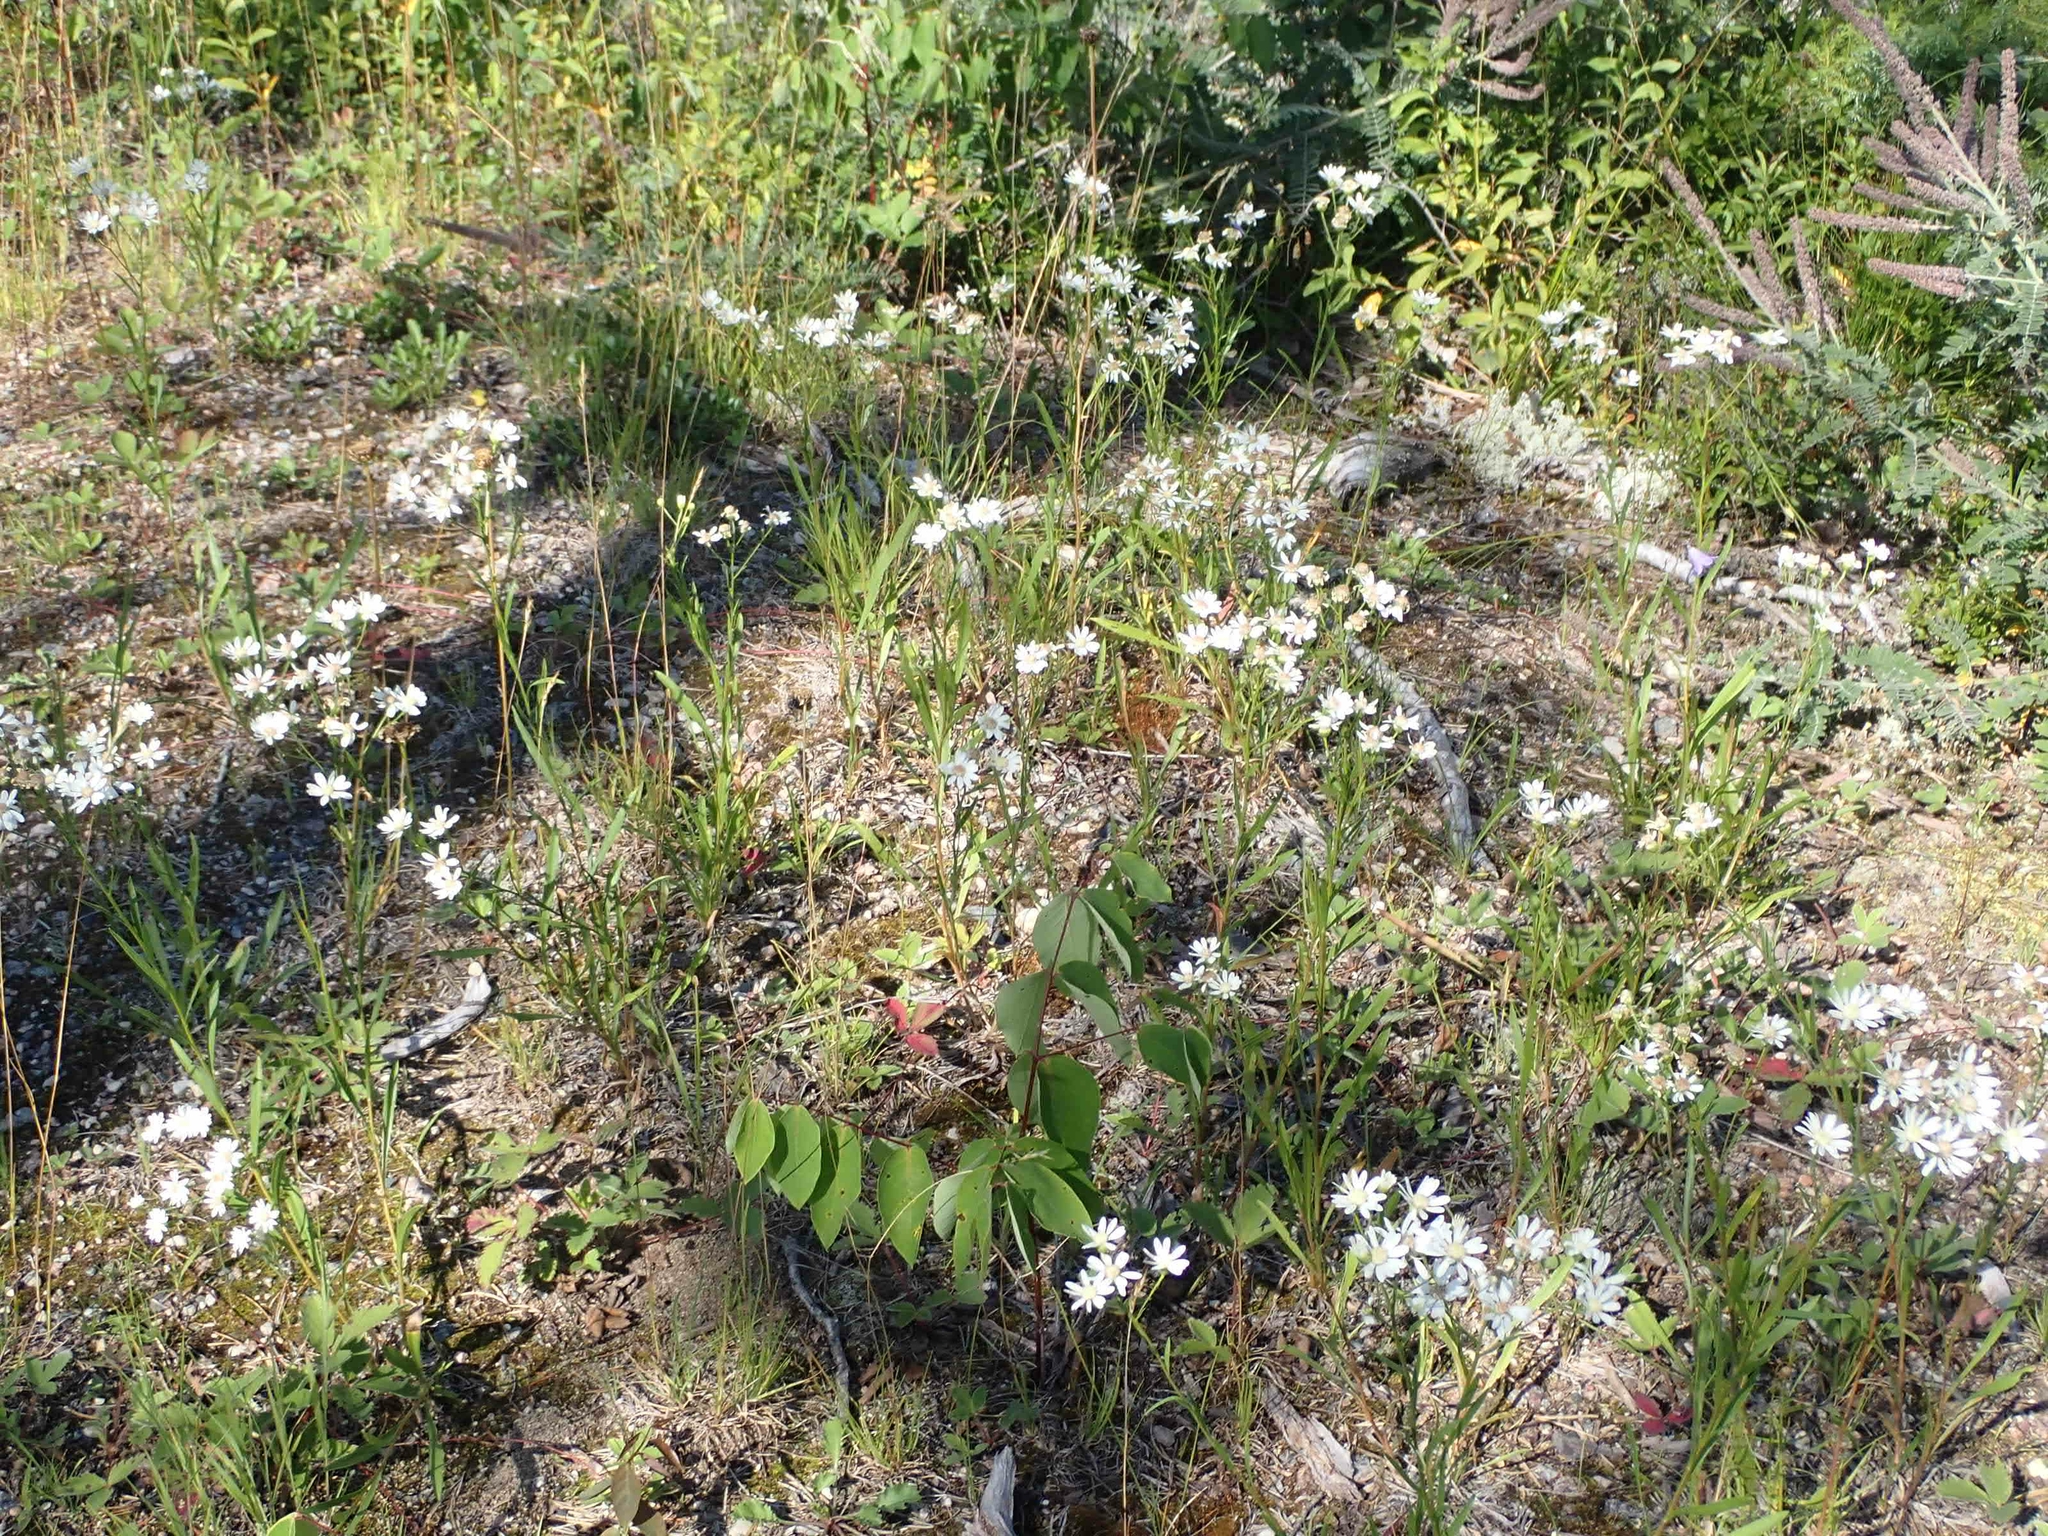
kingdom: Plantae
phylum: Tracheophyta
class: Magnoliopsida
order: Asterales
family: Asteraceae
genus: Solidago
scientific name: Solidago ptarmicoides
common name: White flat-top goldenrod
